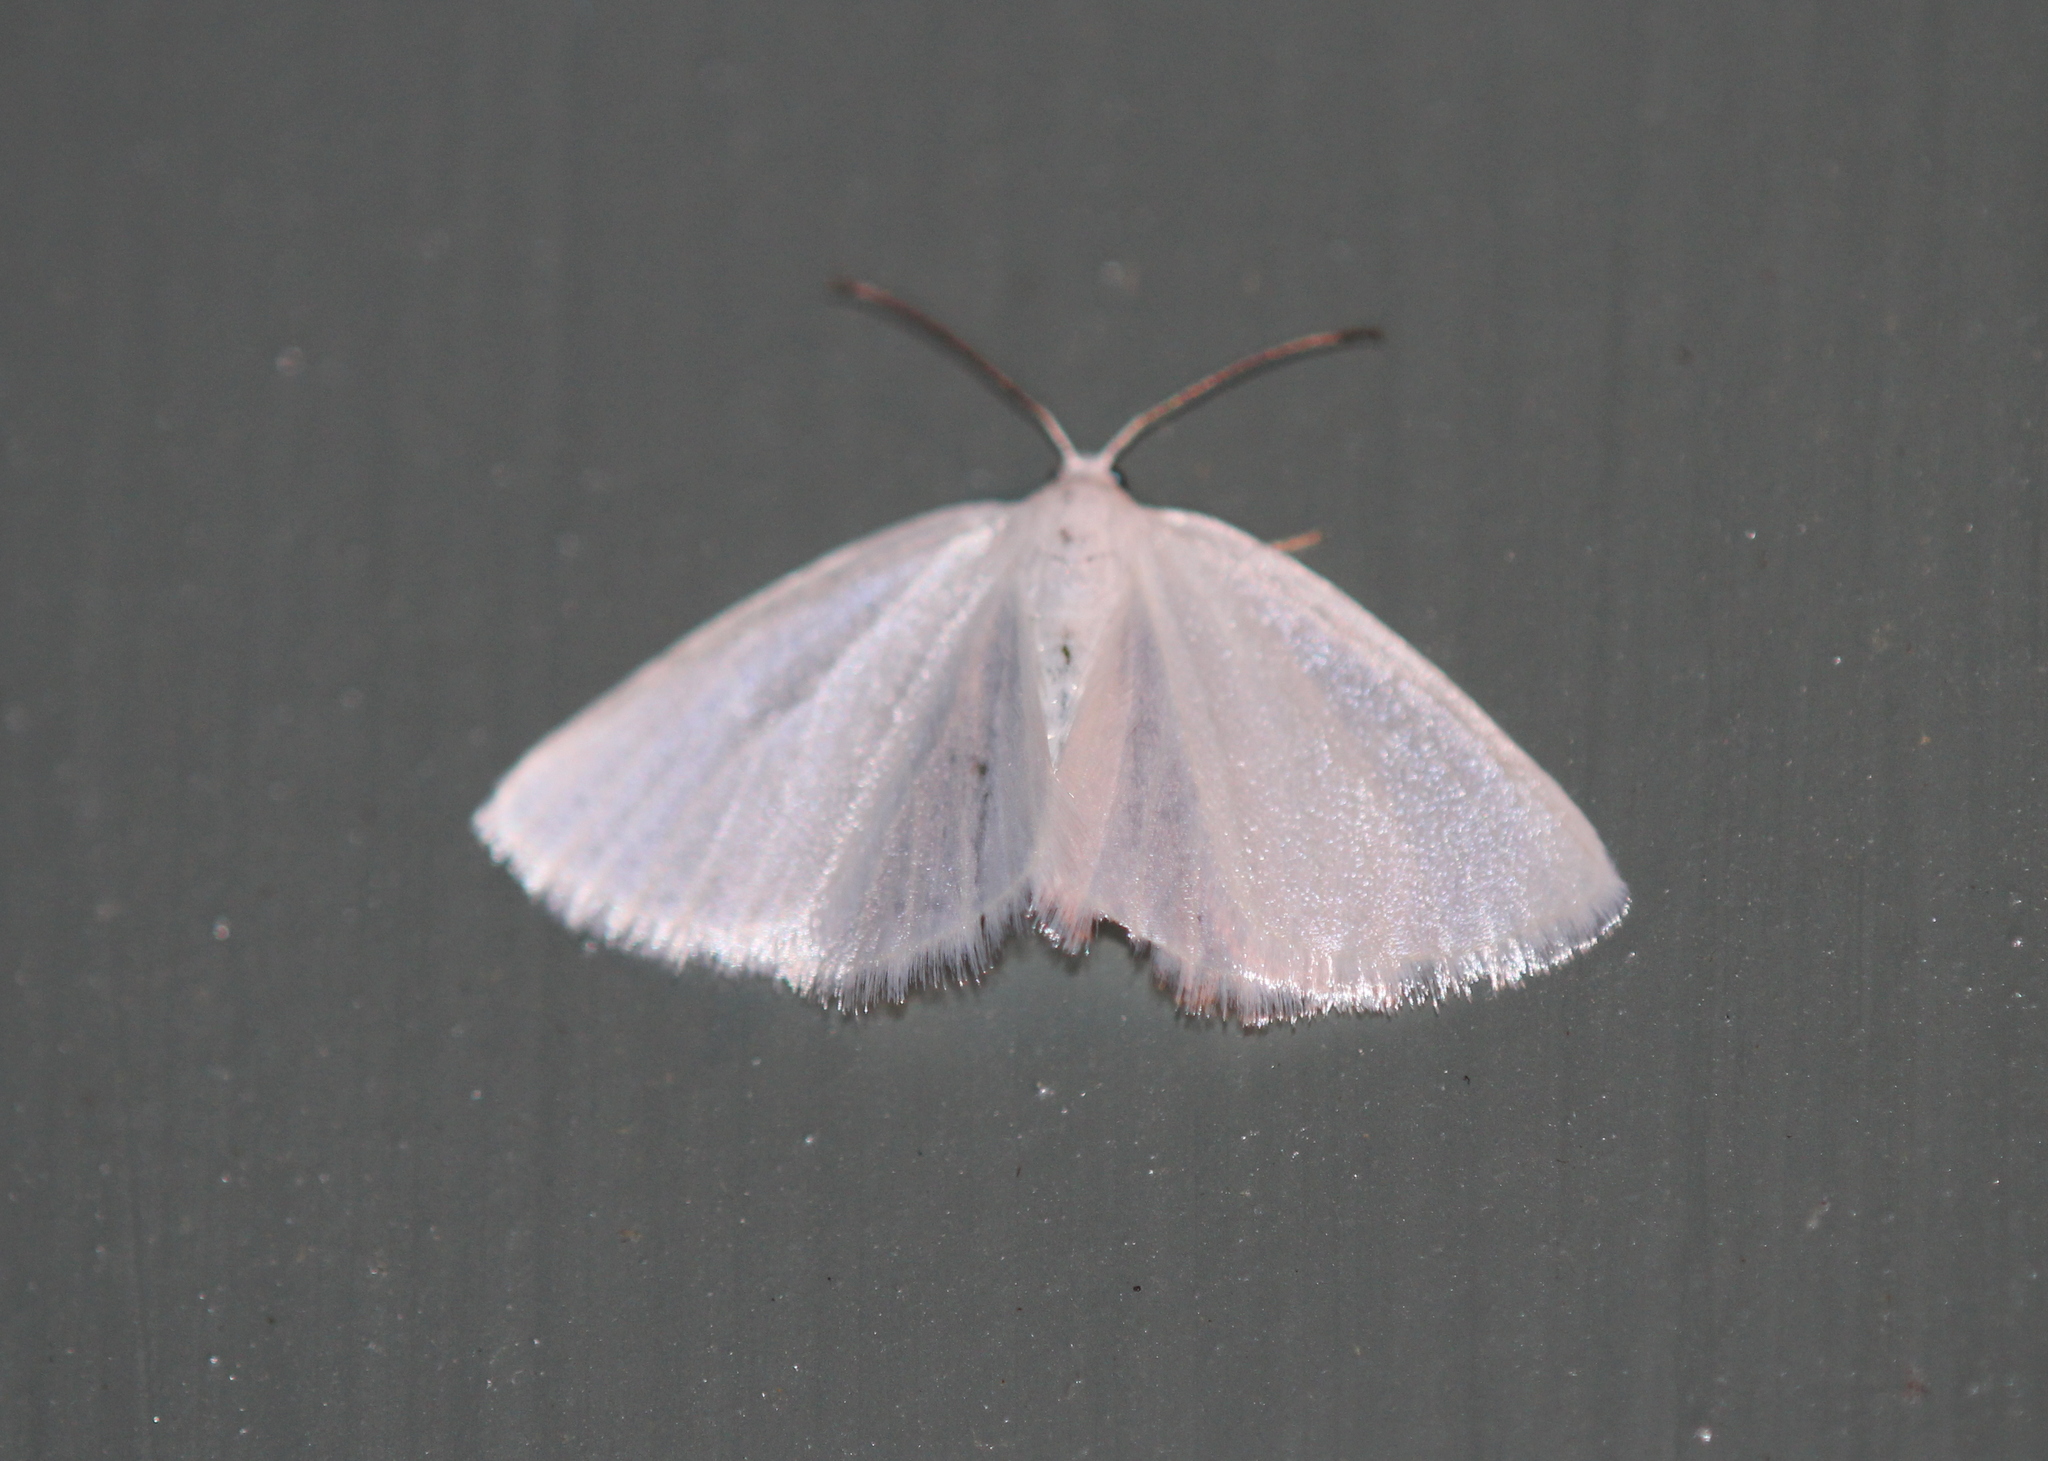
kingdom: Animalia
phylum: Arthropoda
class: Insecta
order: Lepidoptera
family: Geometridae
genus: Lomographa
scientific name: Lomographa vestaliata
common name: White spring moth
